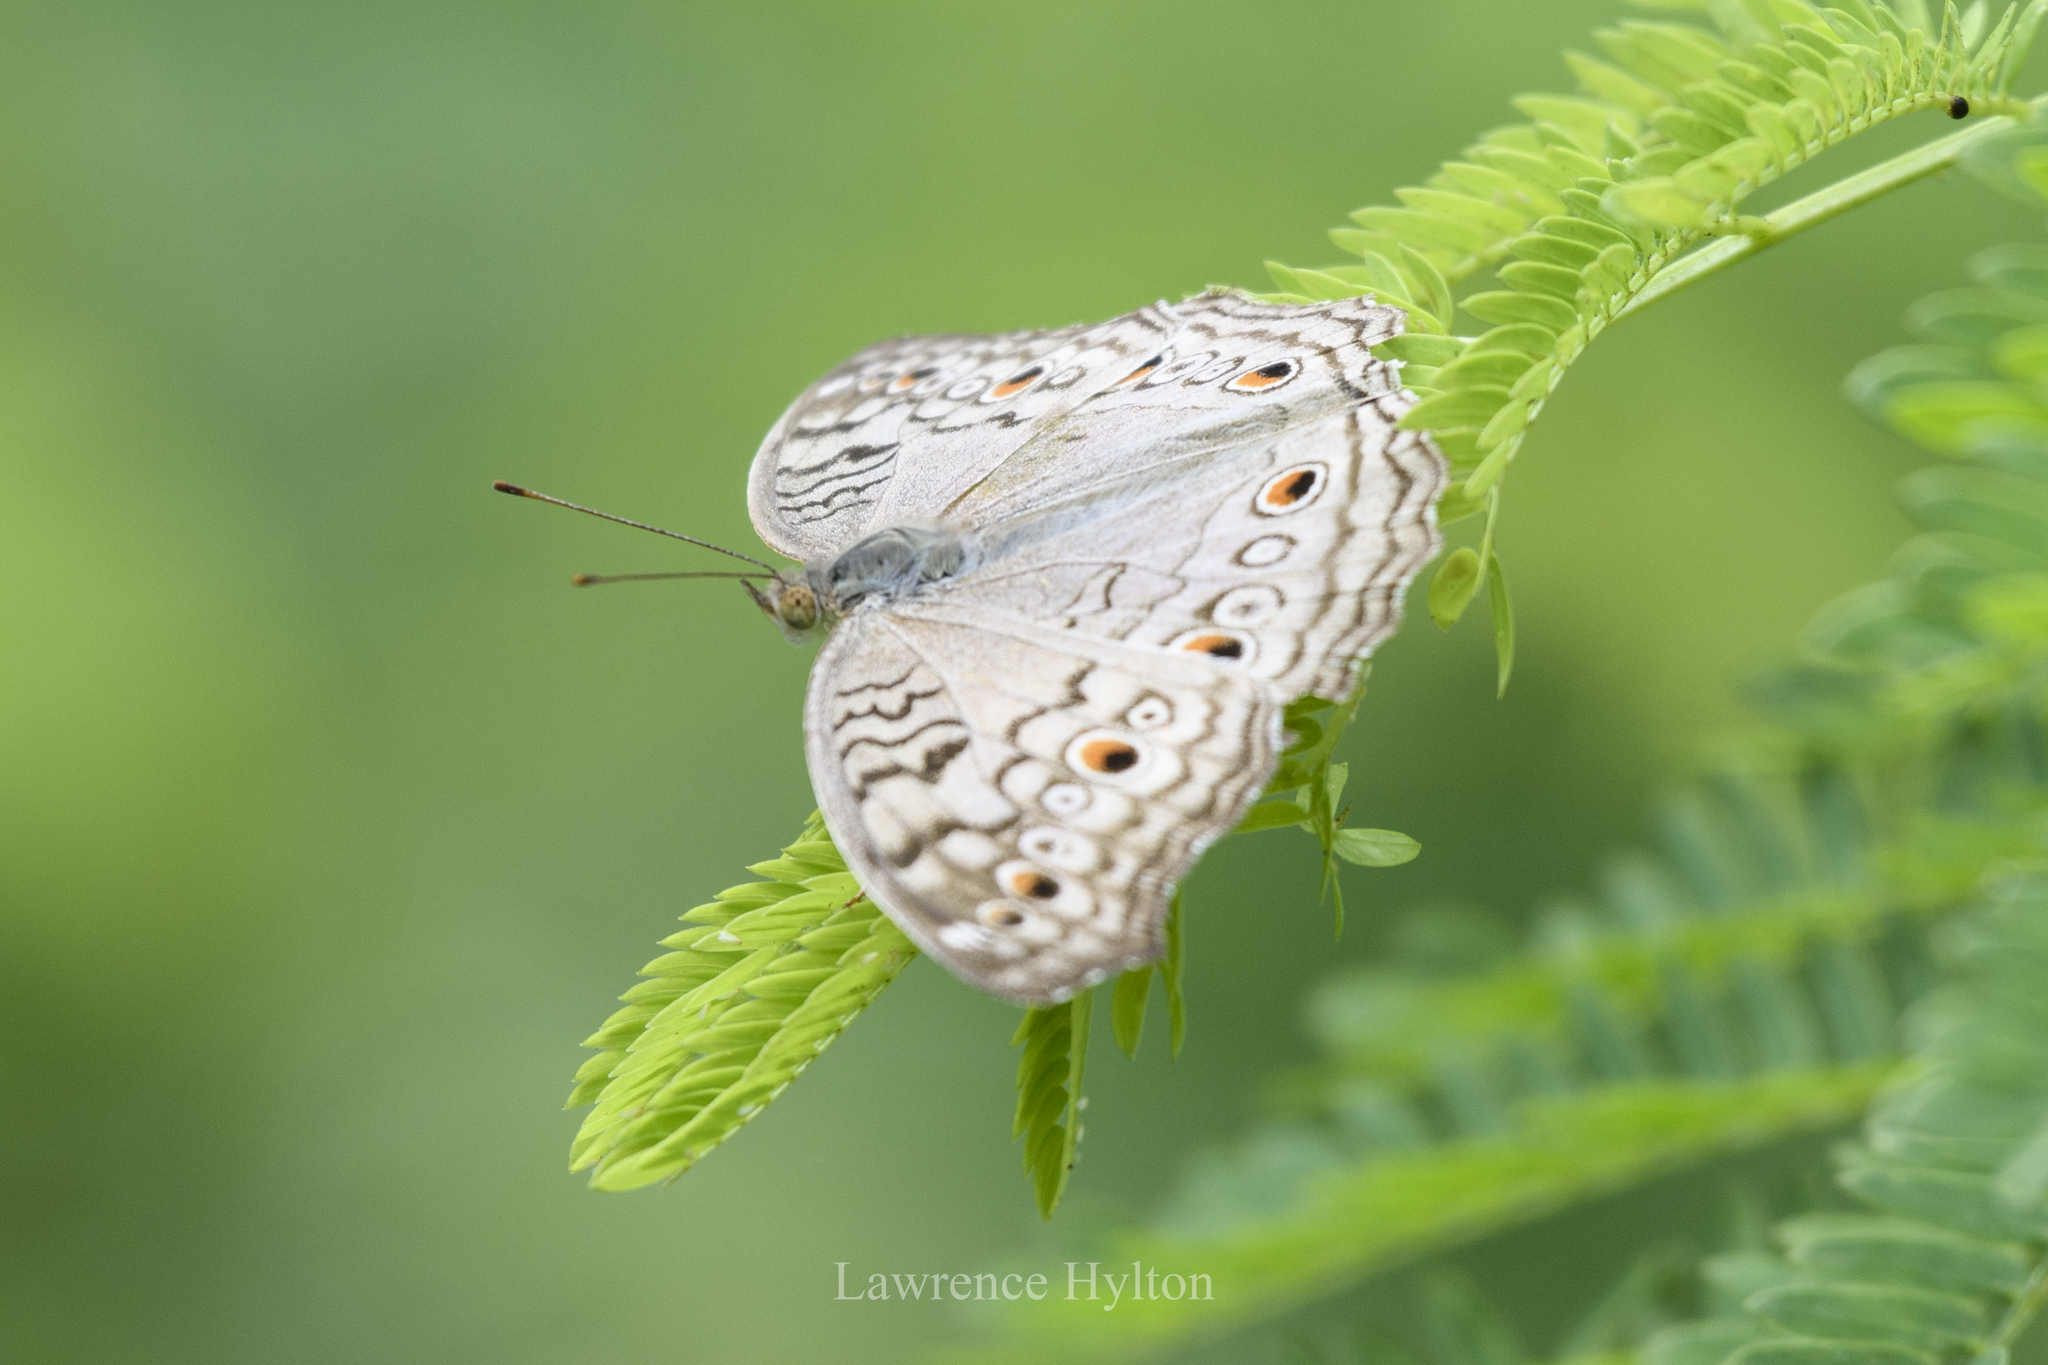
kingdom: Animalia
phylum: Arthropoda
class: Insecta
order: Lepidoptera
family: Nymphalidae
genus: Junonia
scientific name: Junonia atlites
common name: Grey pansy
